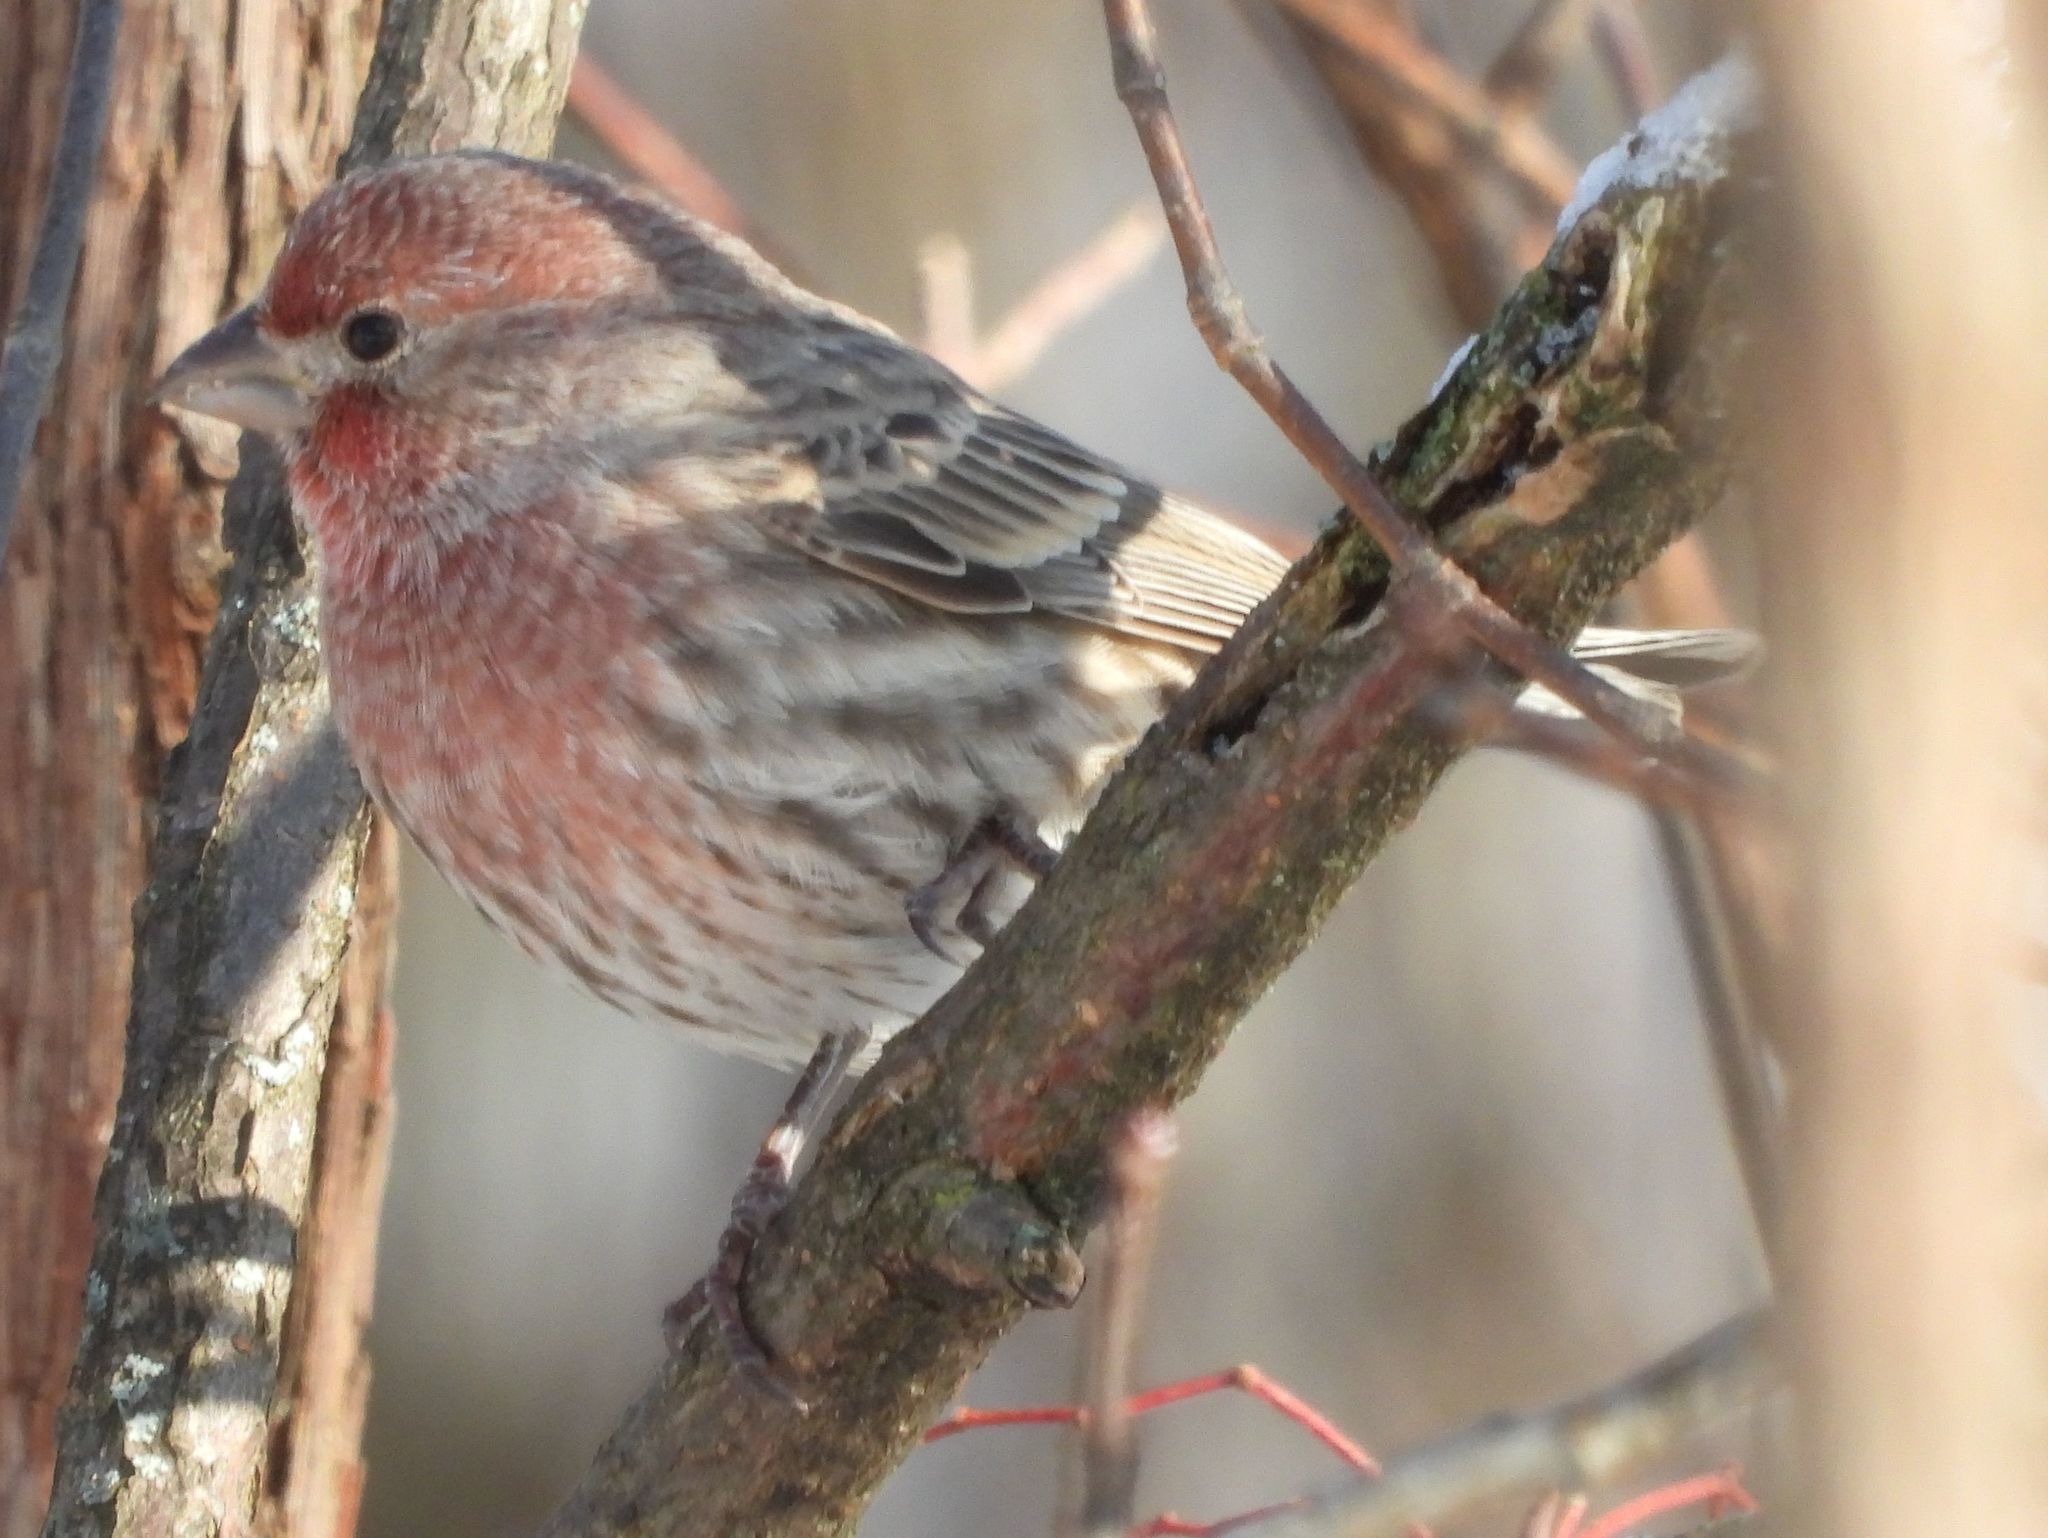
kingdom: Animalia
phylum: Chordata
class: Aves
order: Passeriformes
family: Fringillidae
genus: Haemorhous
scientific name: Haemorhous mexicanus
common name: House finch
